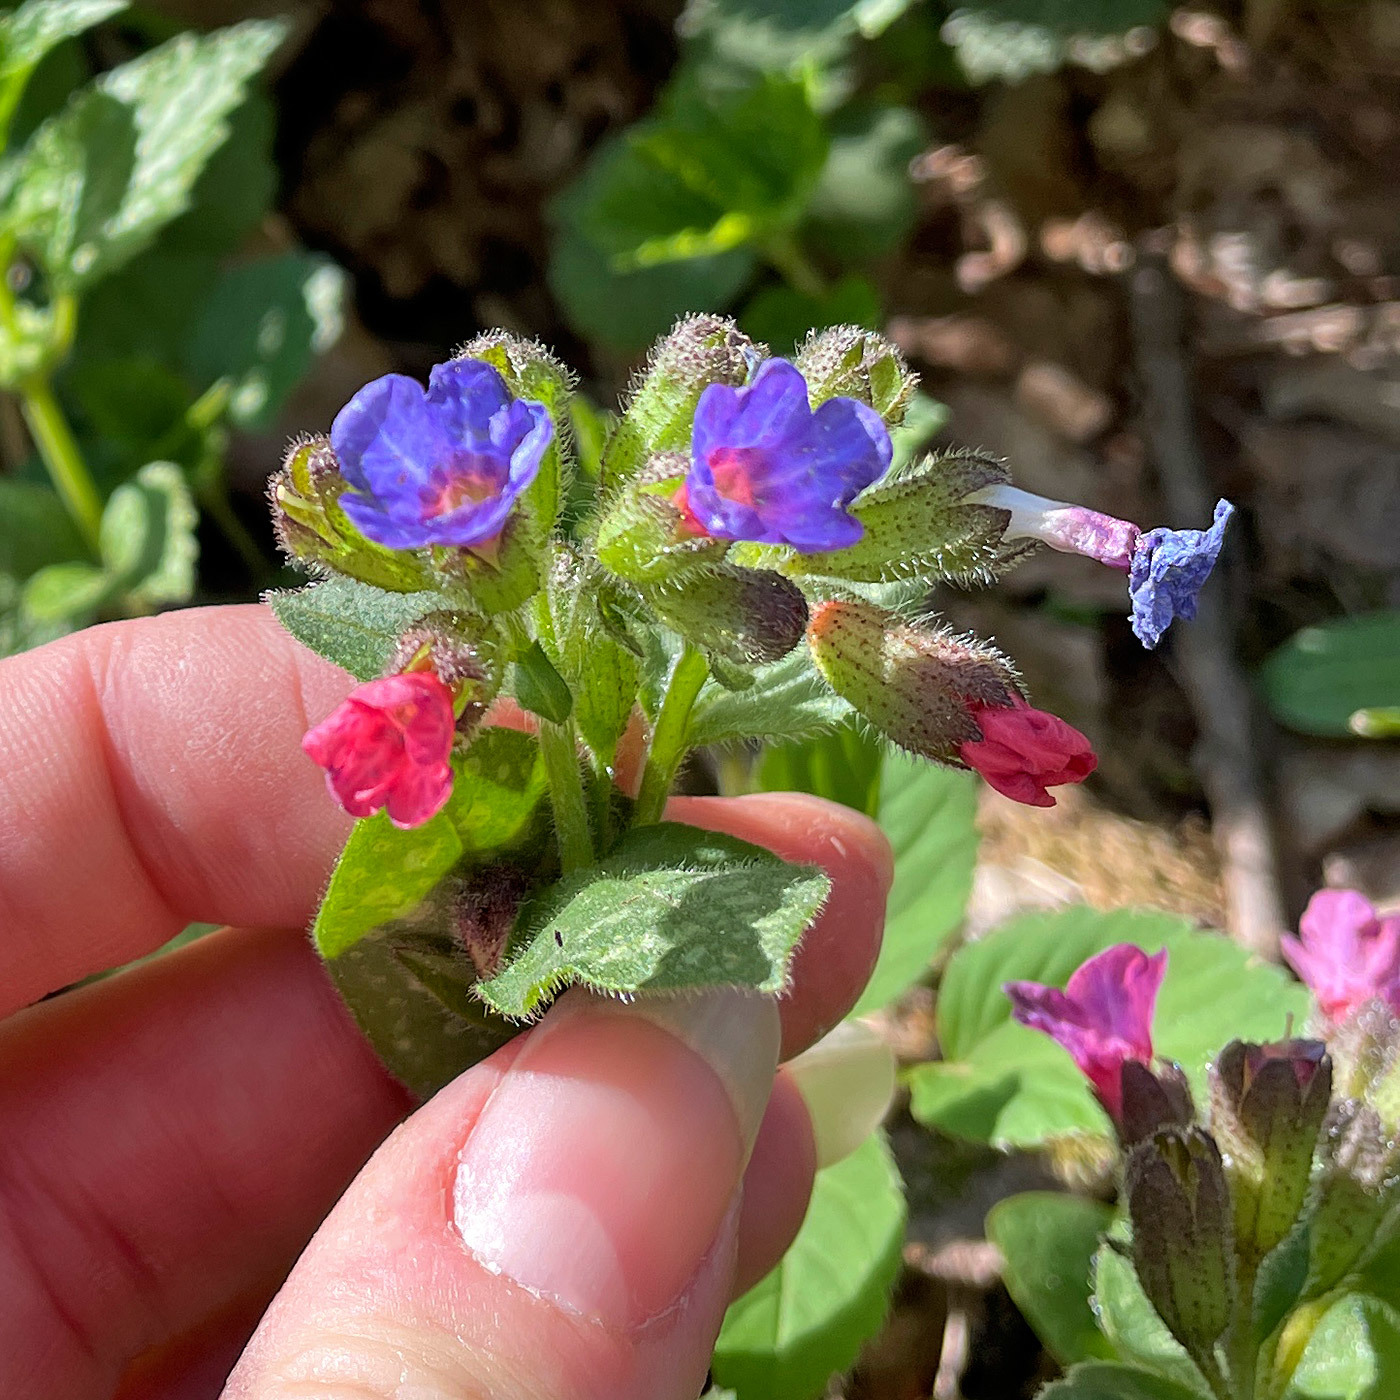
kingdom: Plantae
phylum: Tracheophyta
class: Magnoliopsida
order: Boraginales
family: Boraginaceae
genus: Pulmonaria
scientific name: Pulmonaria officinalis
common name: Lungwort
